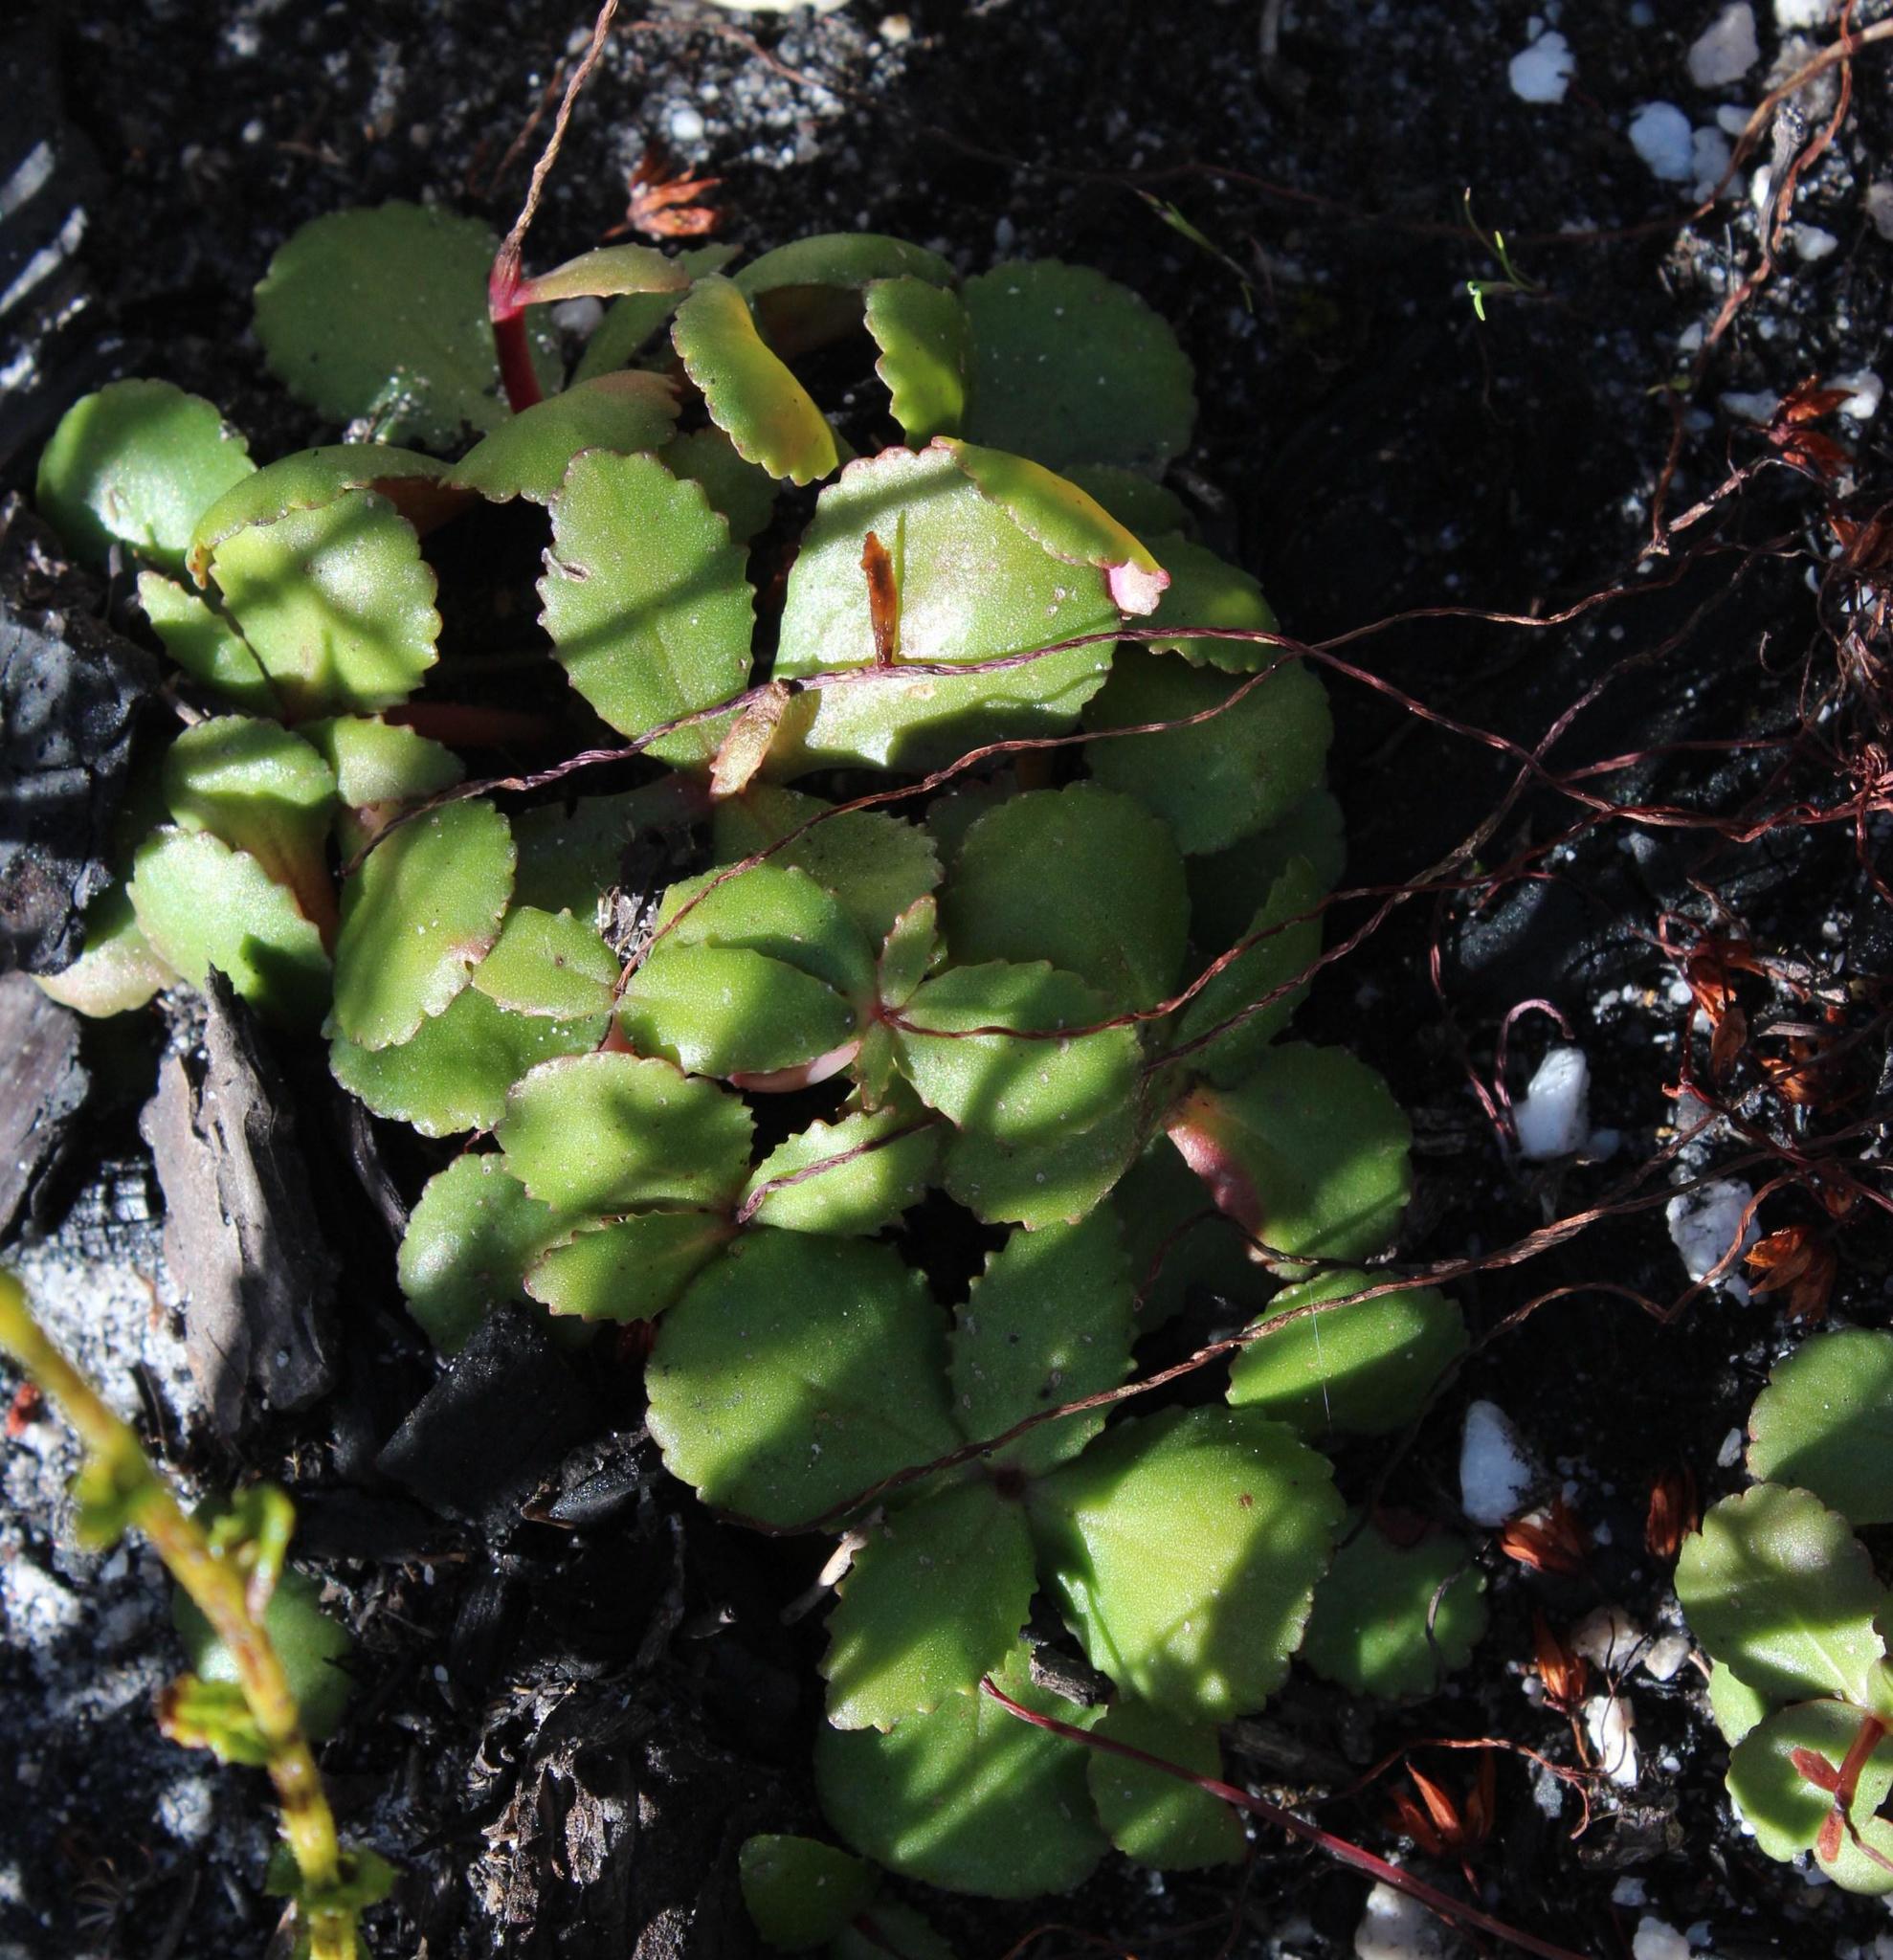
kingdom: Plantae
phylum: Tracheophyta
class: Magnoliopsida
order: Saxifragales
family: Crassulaceae
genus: Crassula
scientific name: Crassula saxifraga
